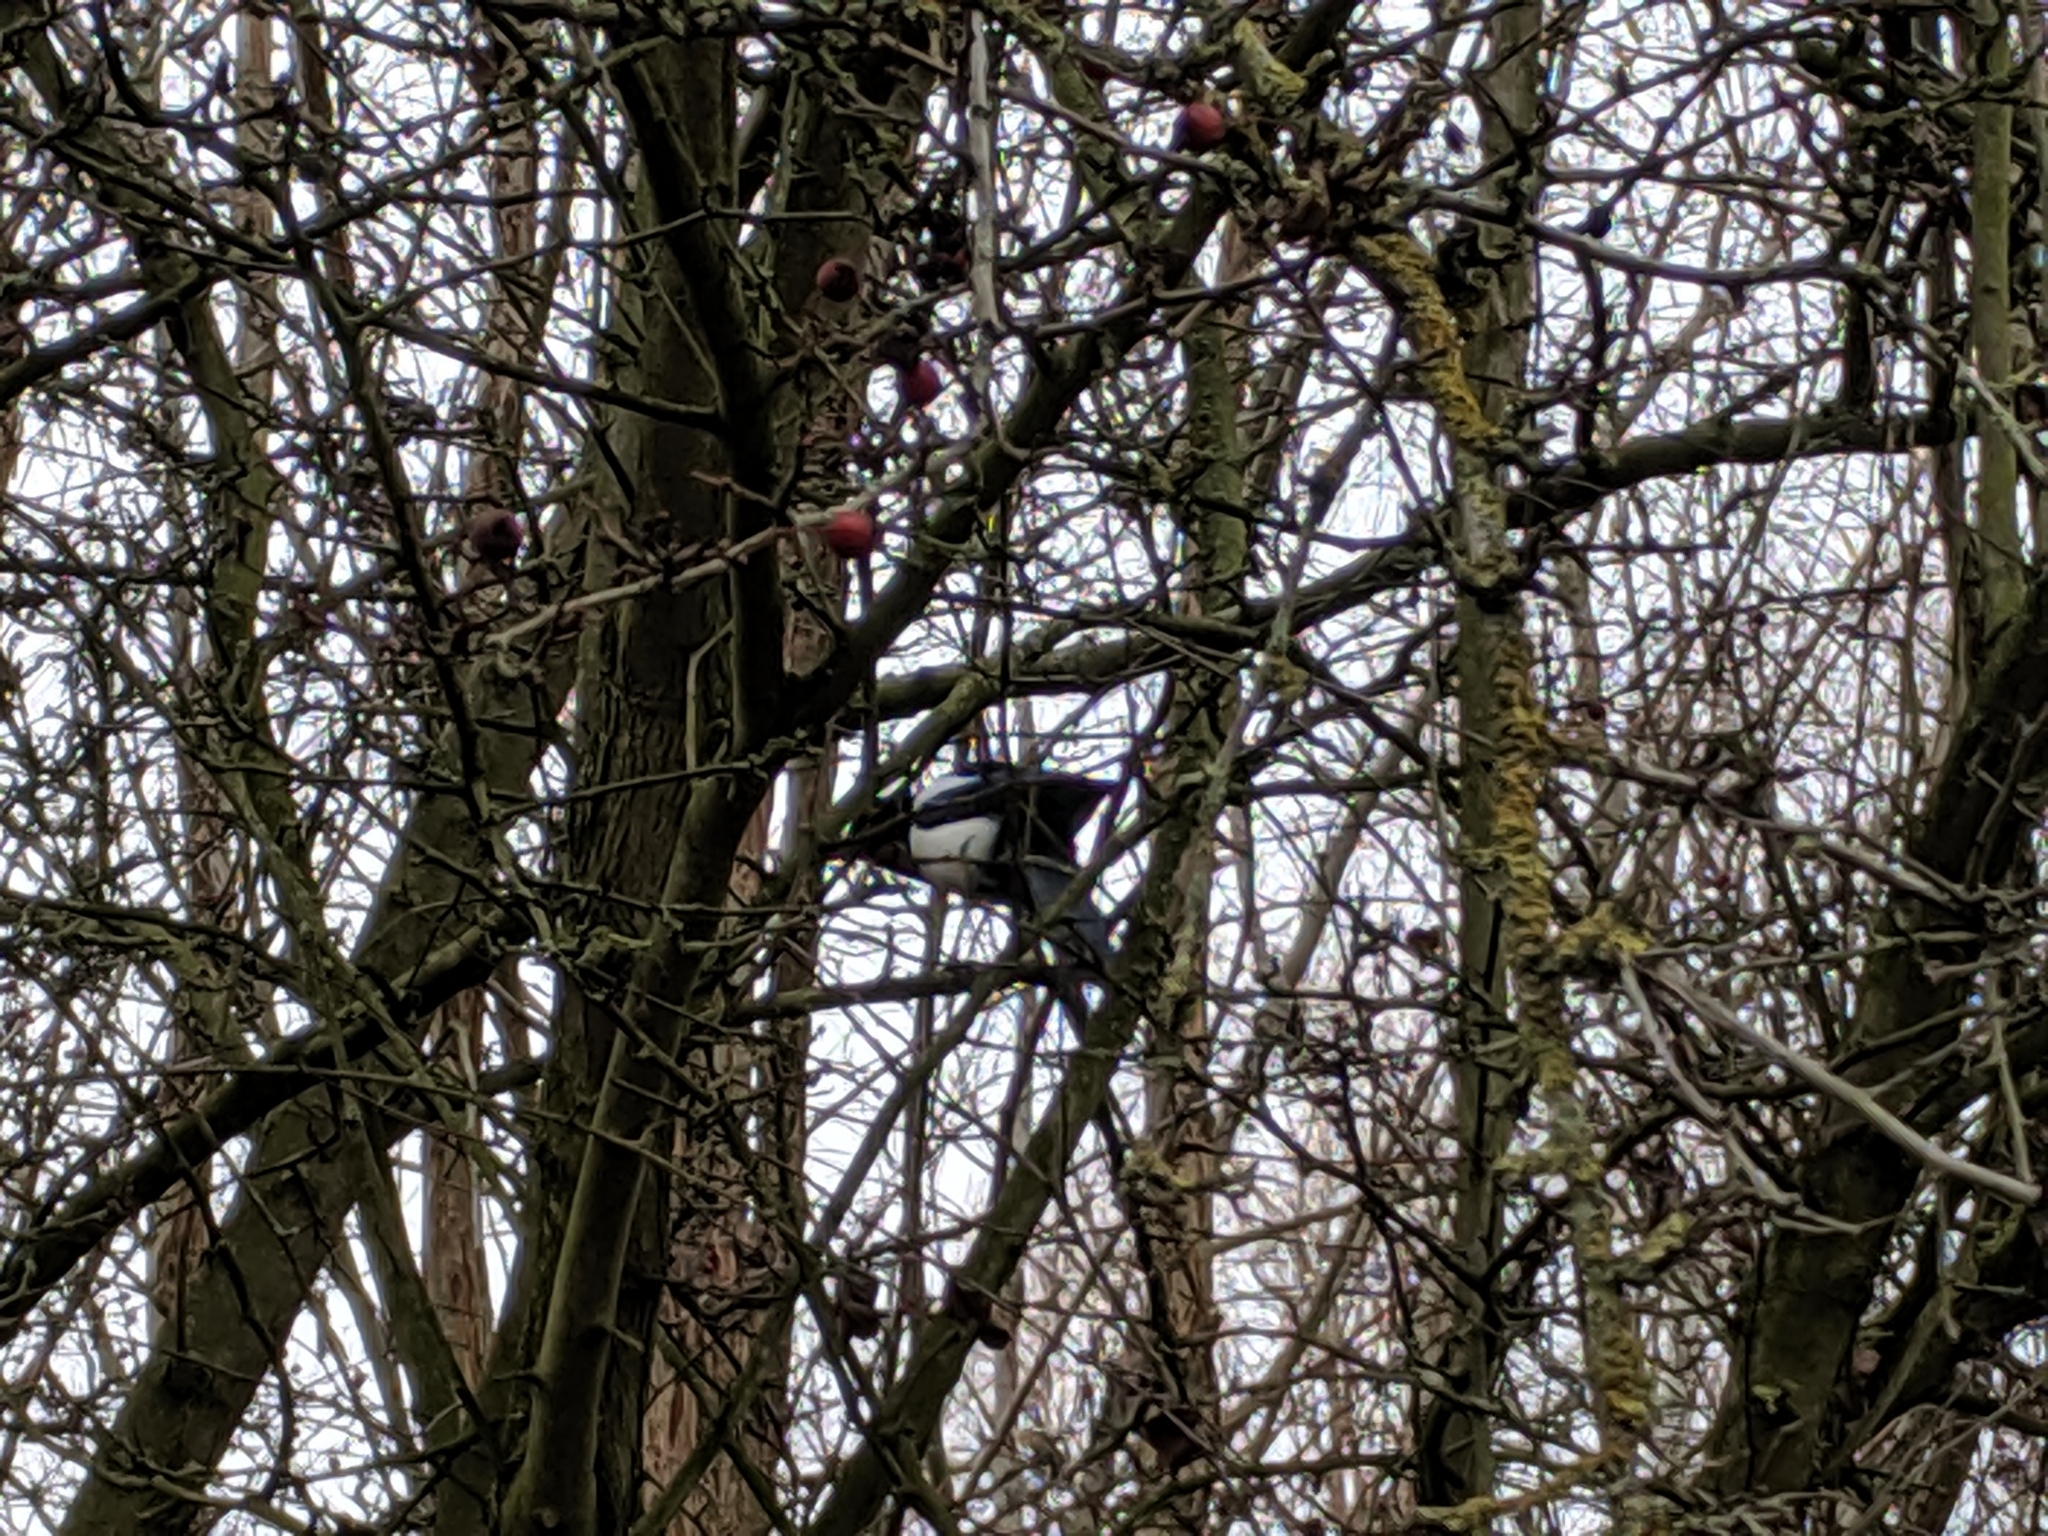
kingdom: Animalia
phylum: Chordata
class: Aves
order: Passeriformes
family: Corvidae
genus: Pica
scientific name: Pica pica
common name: Eurasian magpie
